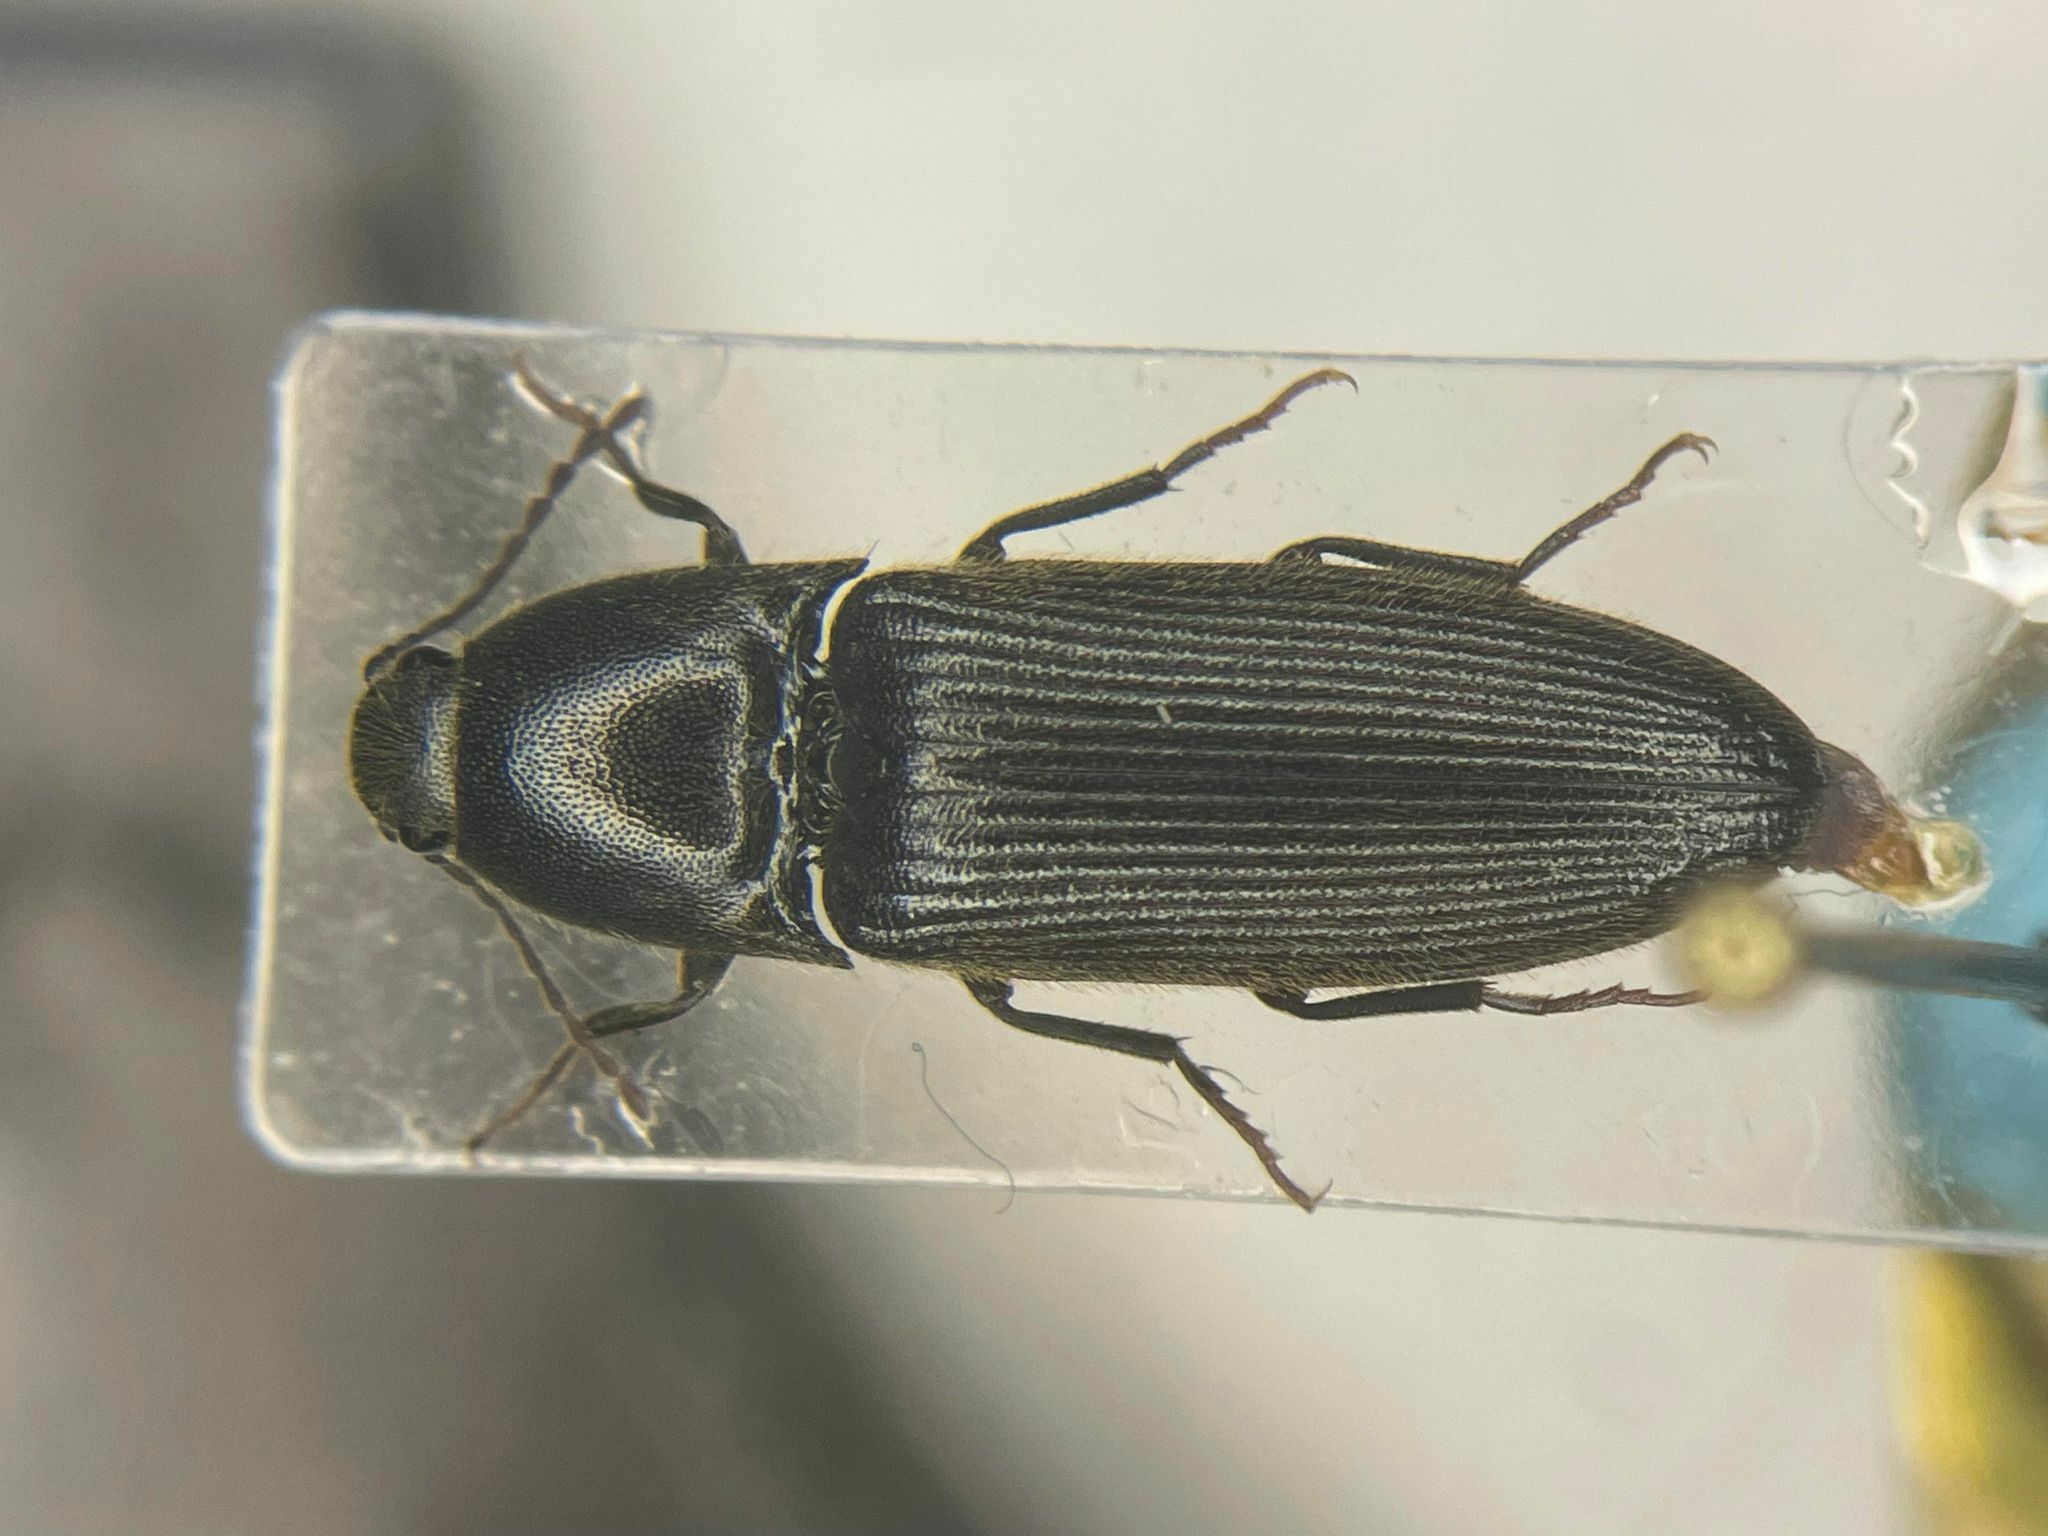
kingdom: Animalia
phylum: Arthropoda
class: Insecta
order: Coleoptera
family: Elateridae
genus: Ampedus
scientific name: Ampedus luctuosus
